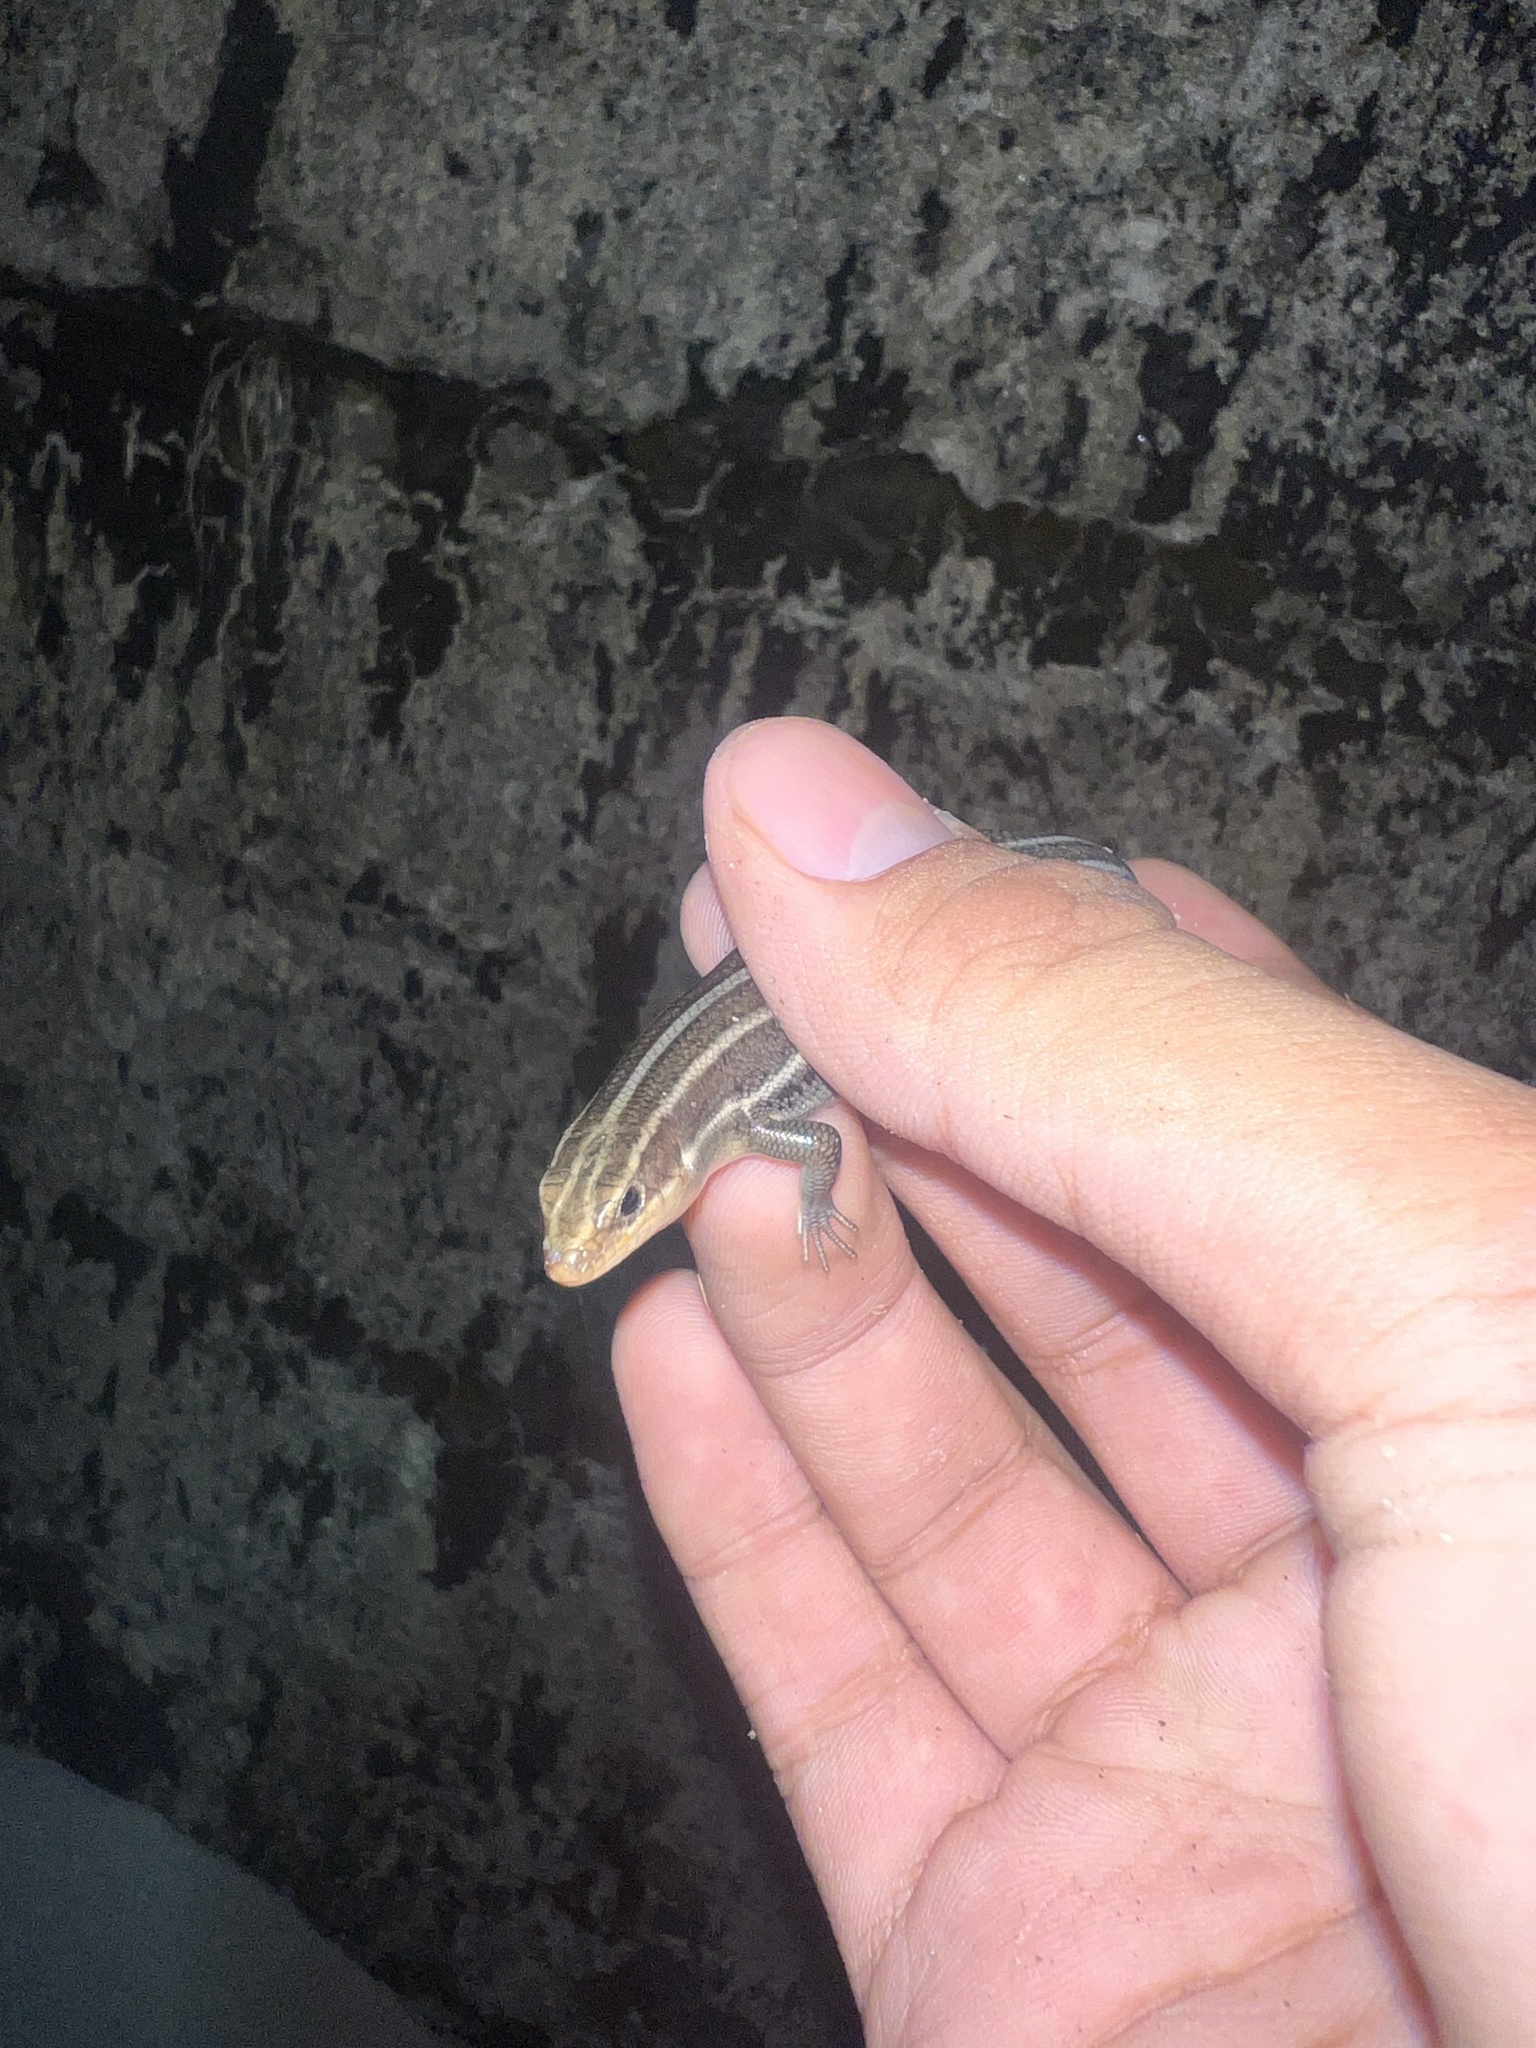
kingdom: Animalia
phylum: Chordata
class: Squamata
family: Scincidae
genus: Plestiodon
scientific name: Plestiodon fasciatus
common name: Five-lined skink
